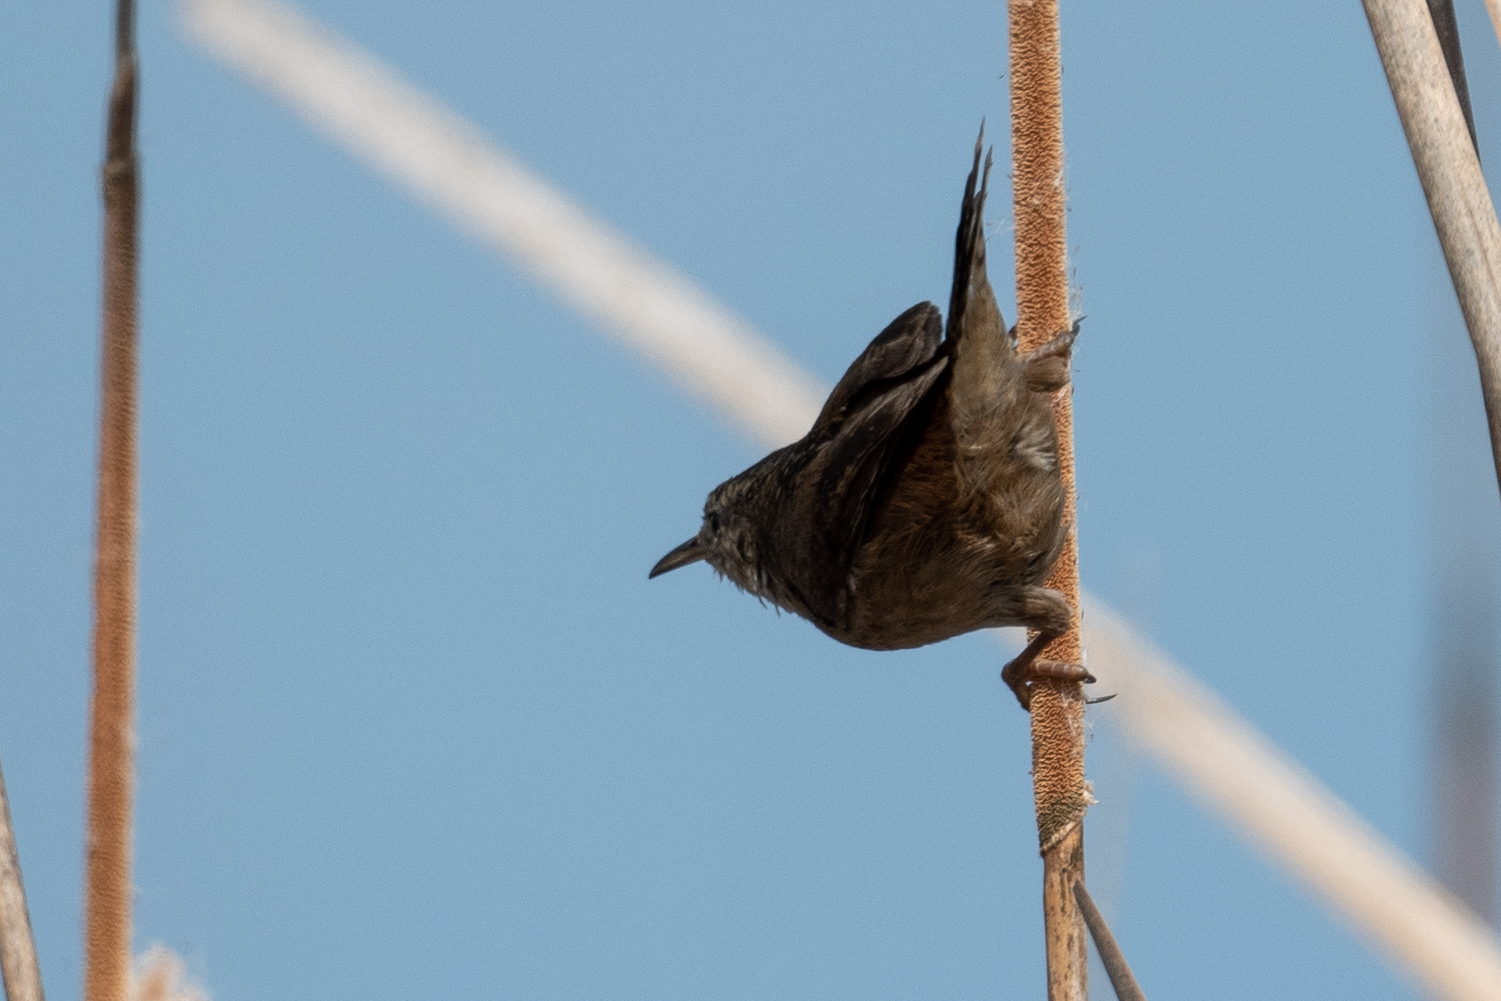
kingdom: Animalia
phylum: Chordata
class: Aves
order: Passeriformes
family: Troglodytidae
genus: Cistothorus
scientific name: Cistothorus palustris
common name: Marsh wren
